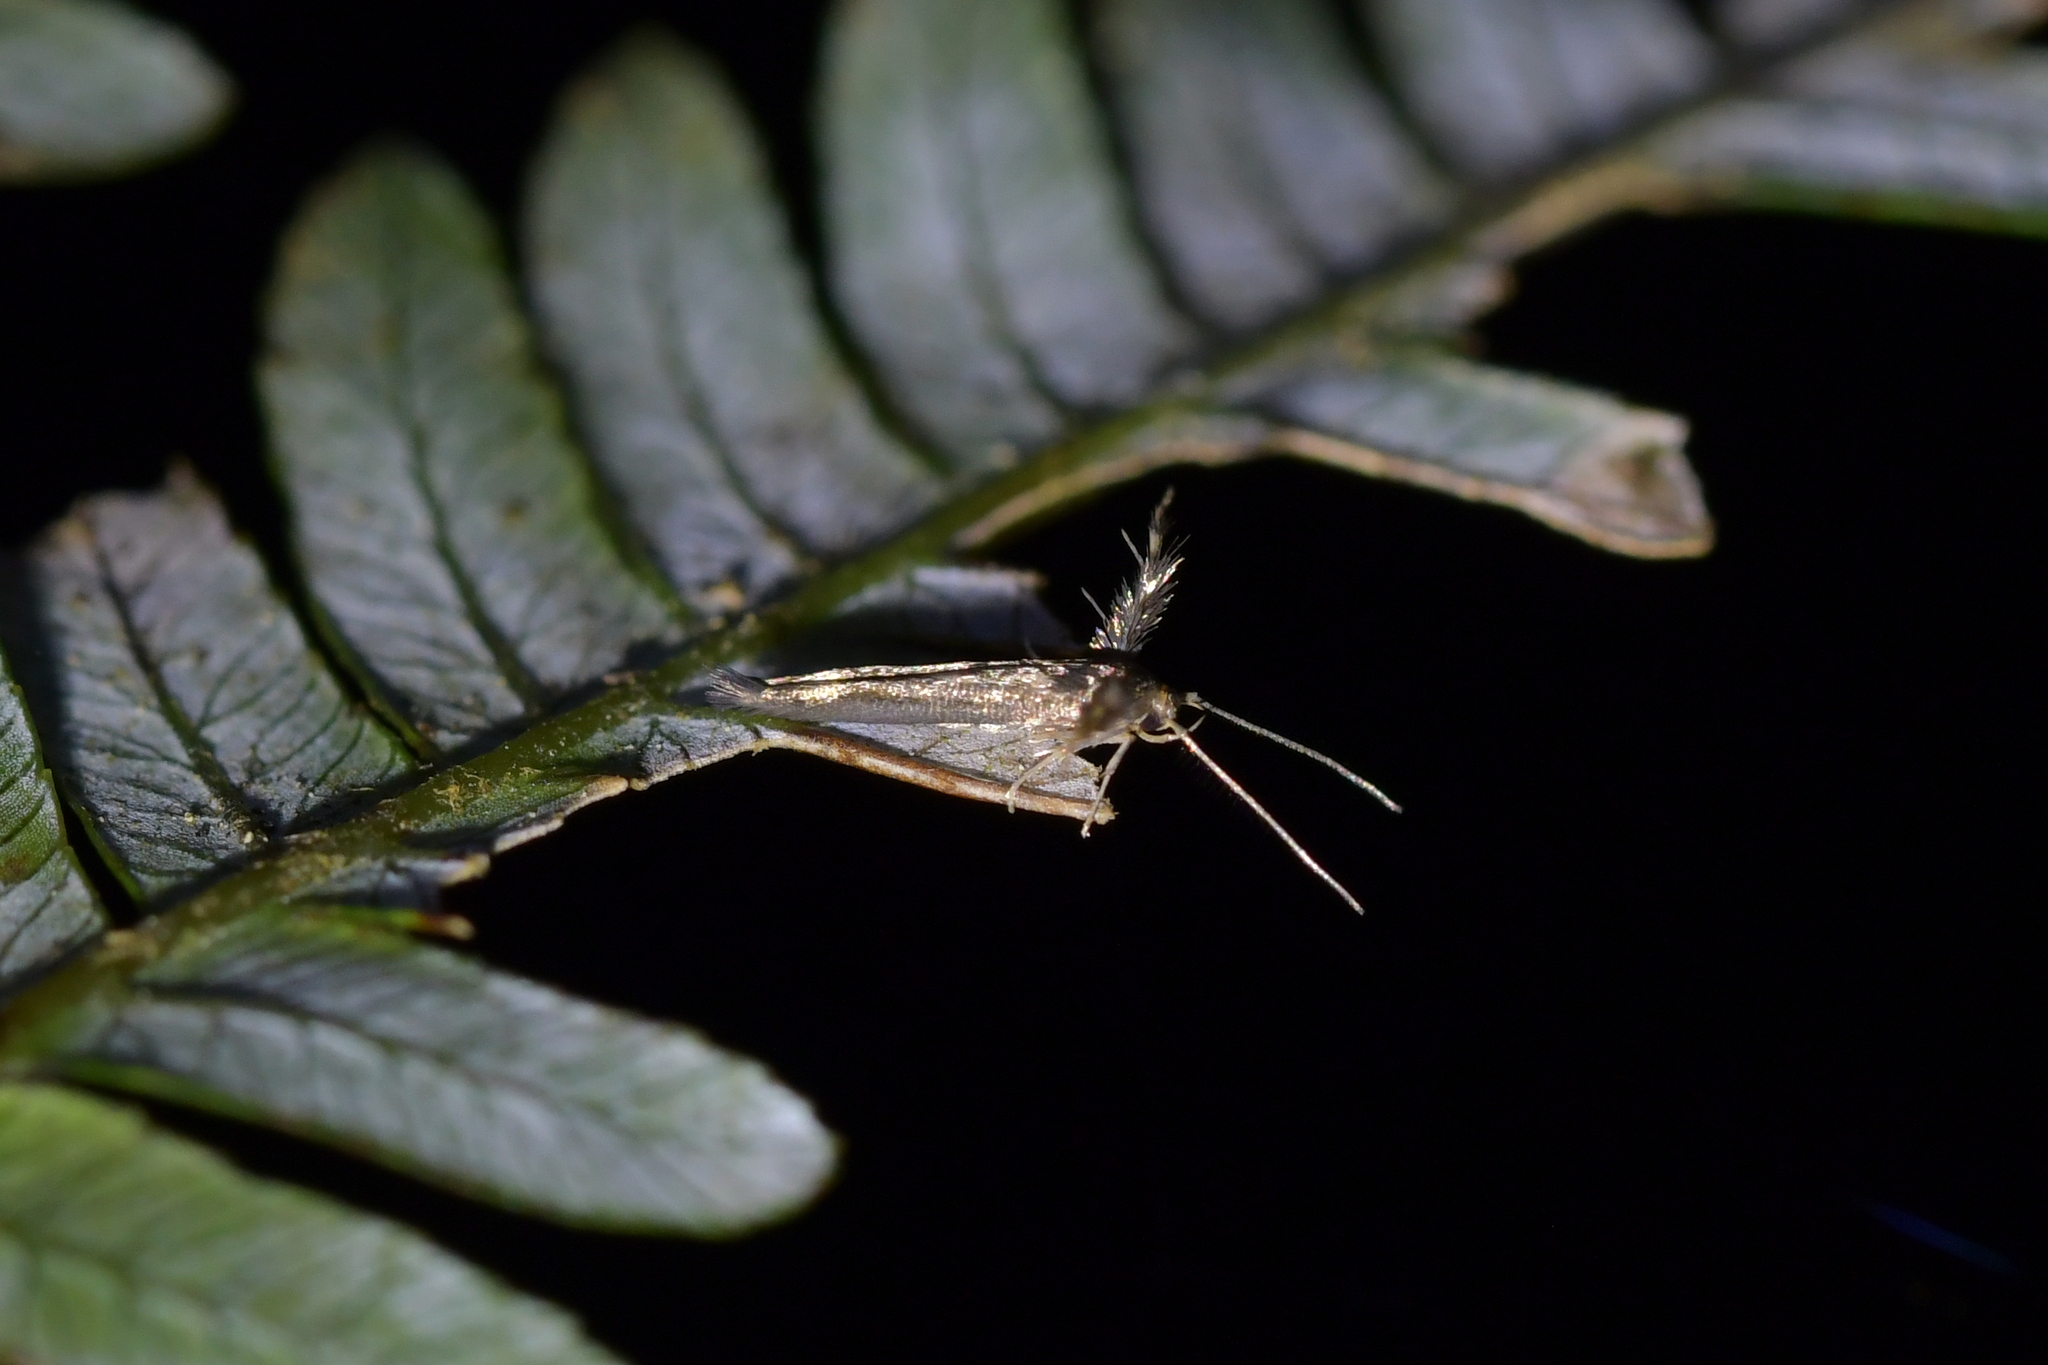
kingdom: Animalia
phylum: Arthropoda
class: Insecta
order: Lepidoptera
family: Stathmopodidae
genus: Stathmopoda
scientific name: Stathmopoda coracodes
